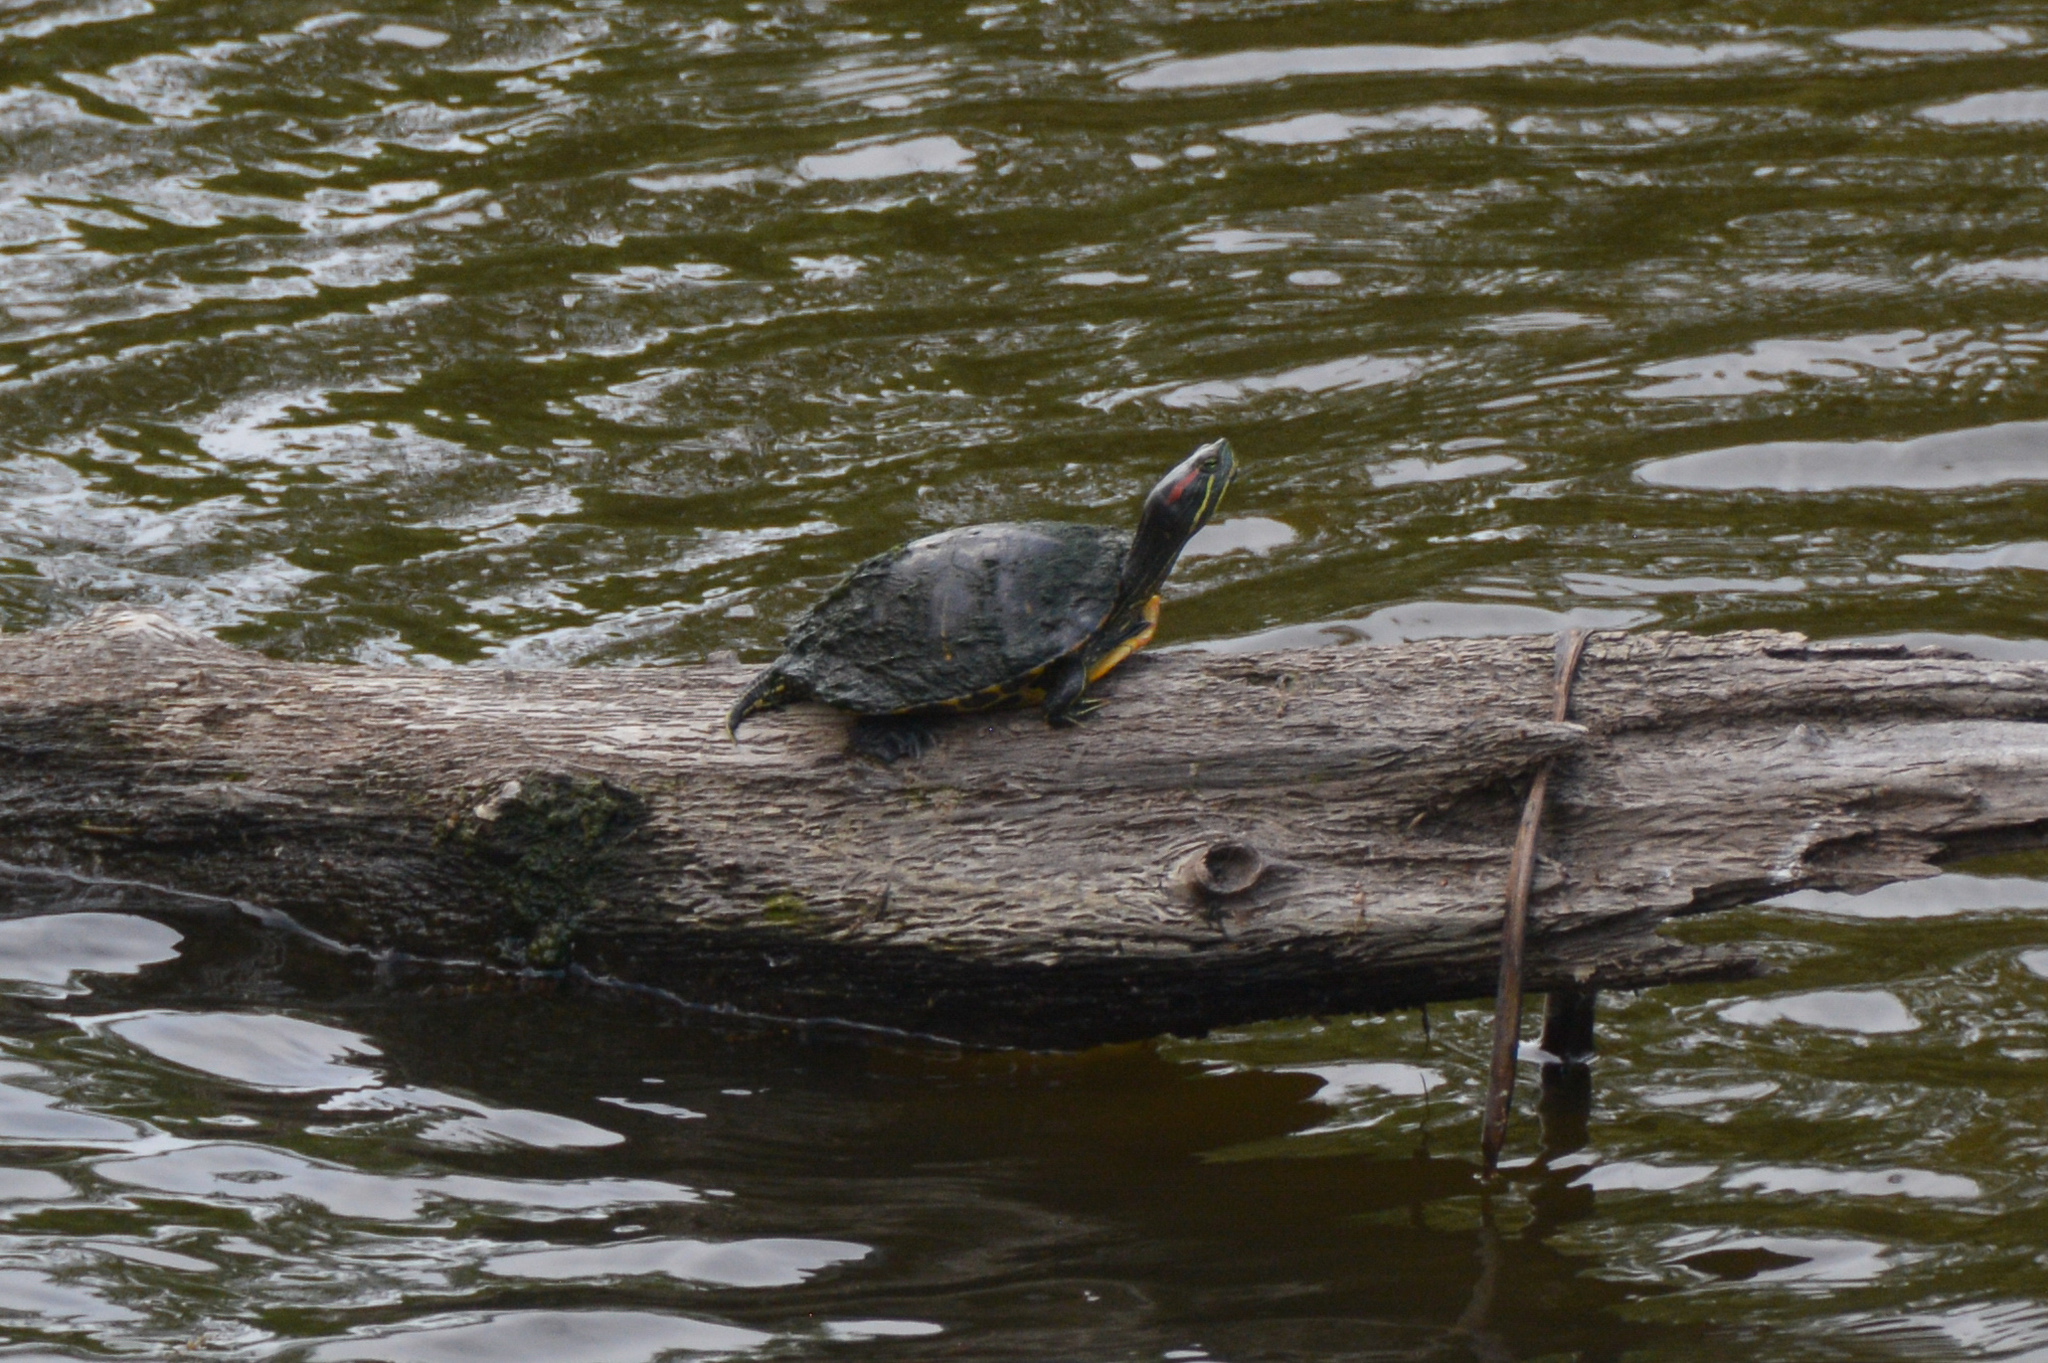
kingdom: Animalia
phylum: Chordata
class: Testudines
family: Emydidae
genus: Trachemys
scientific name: Trachemys scripta
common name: Slider
